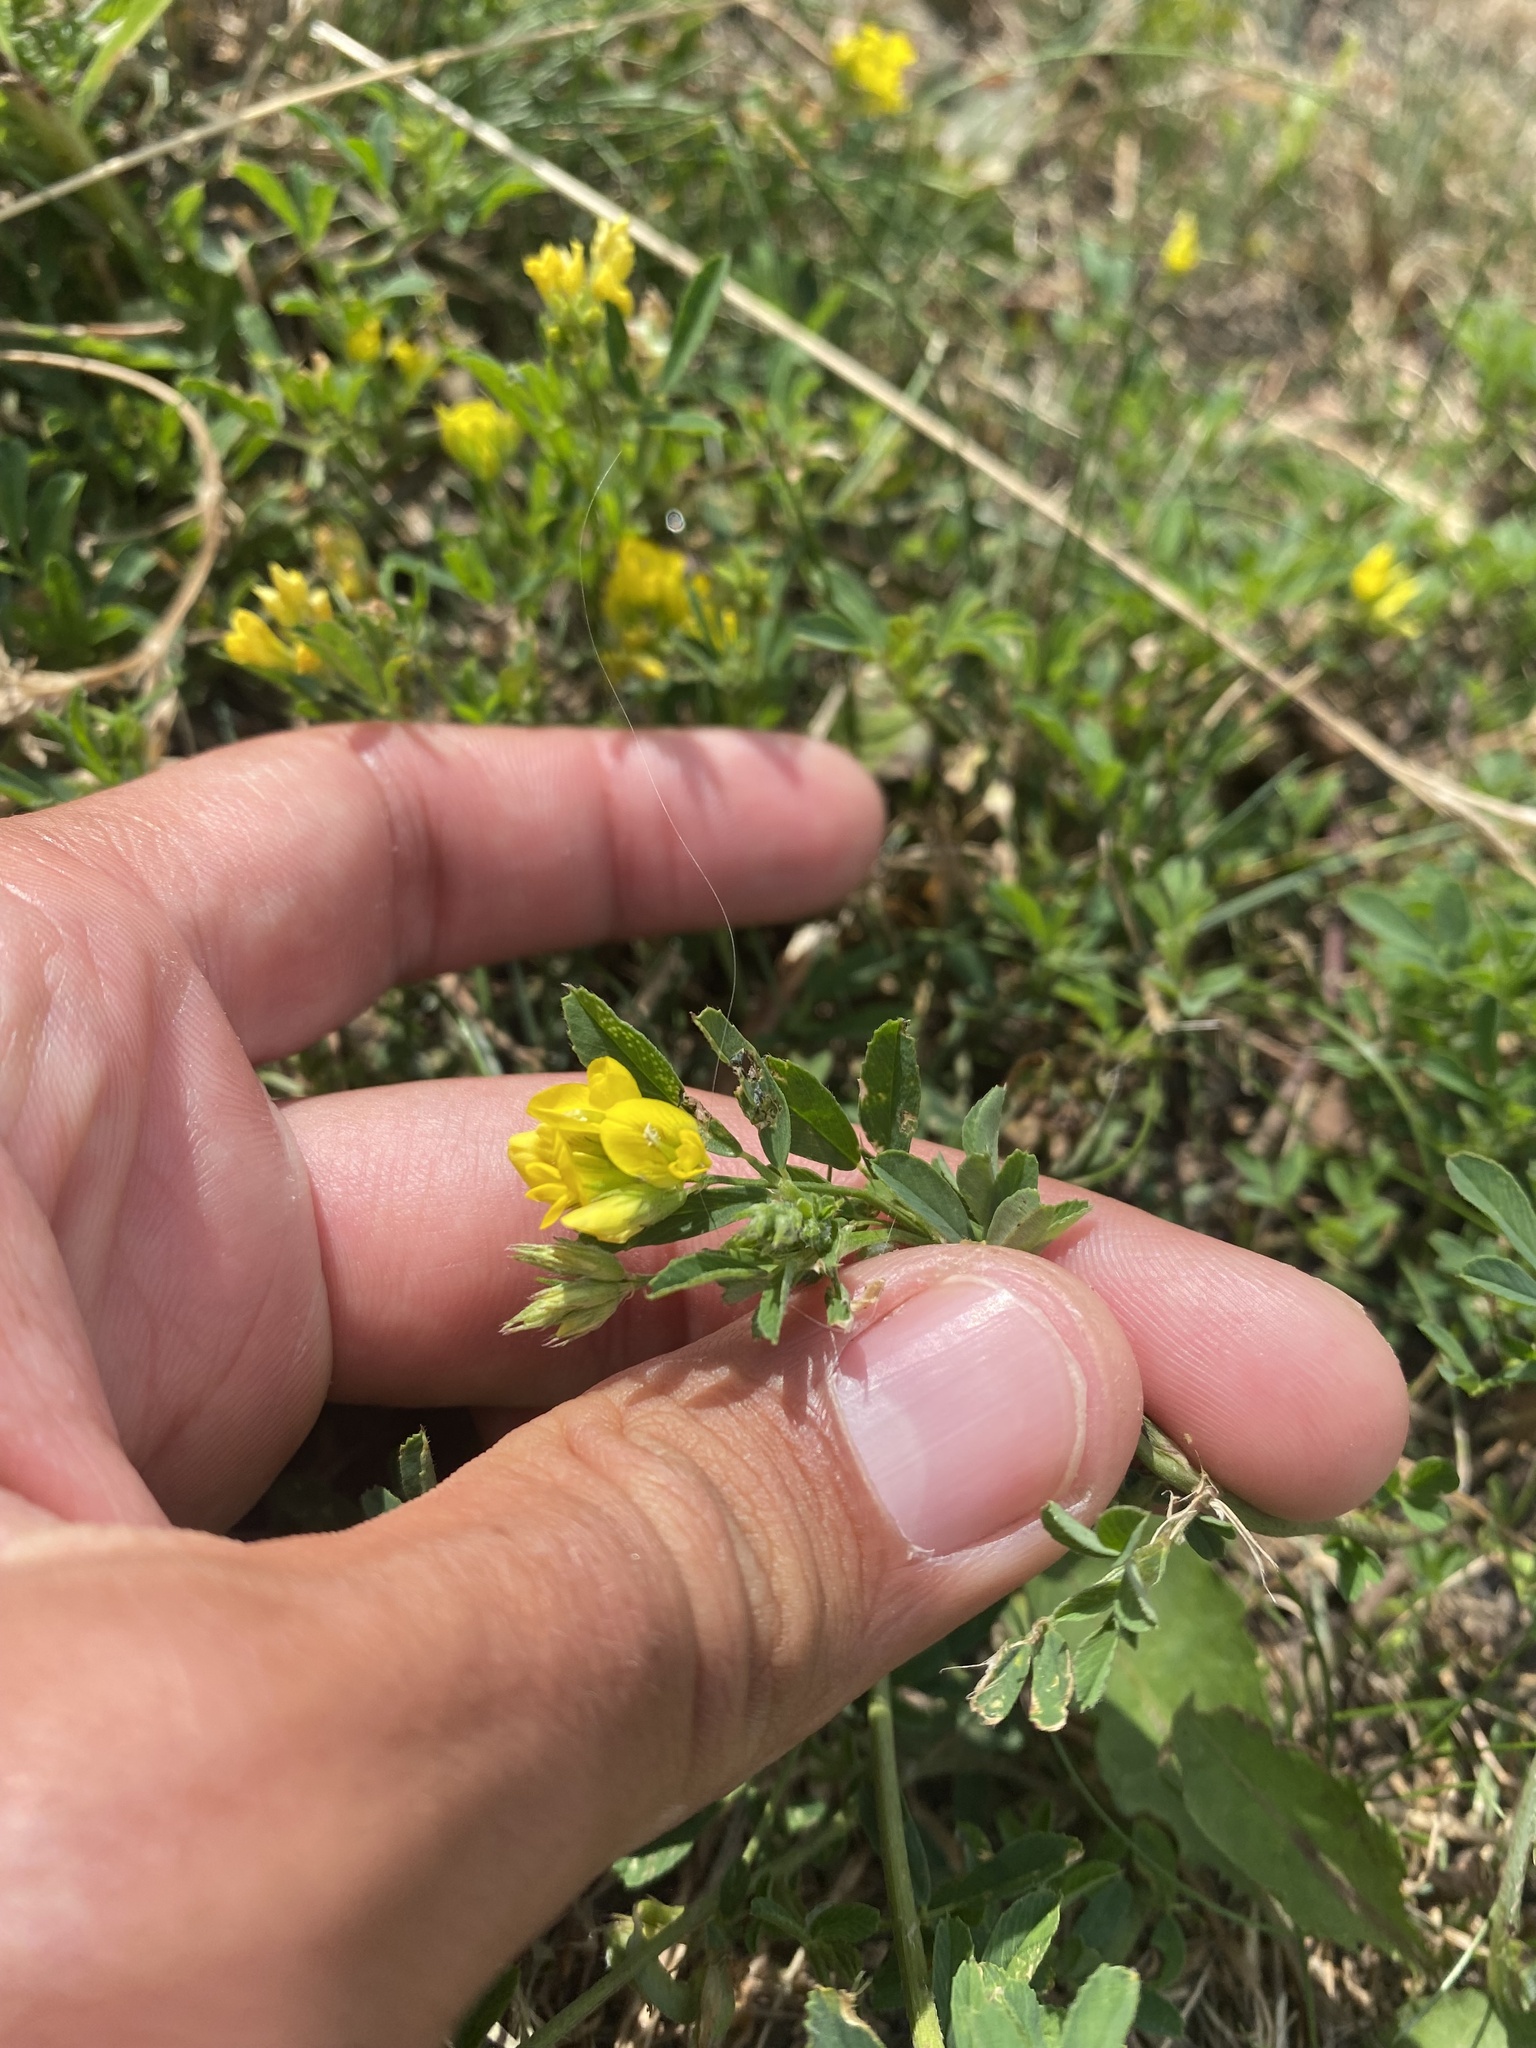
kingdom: Plantae
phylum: Tracheophyta
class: Magnoliopsida
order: Fabales
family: Fabaceae
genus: Medicago
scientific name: Medicago falcata
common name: Sickle medick
